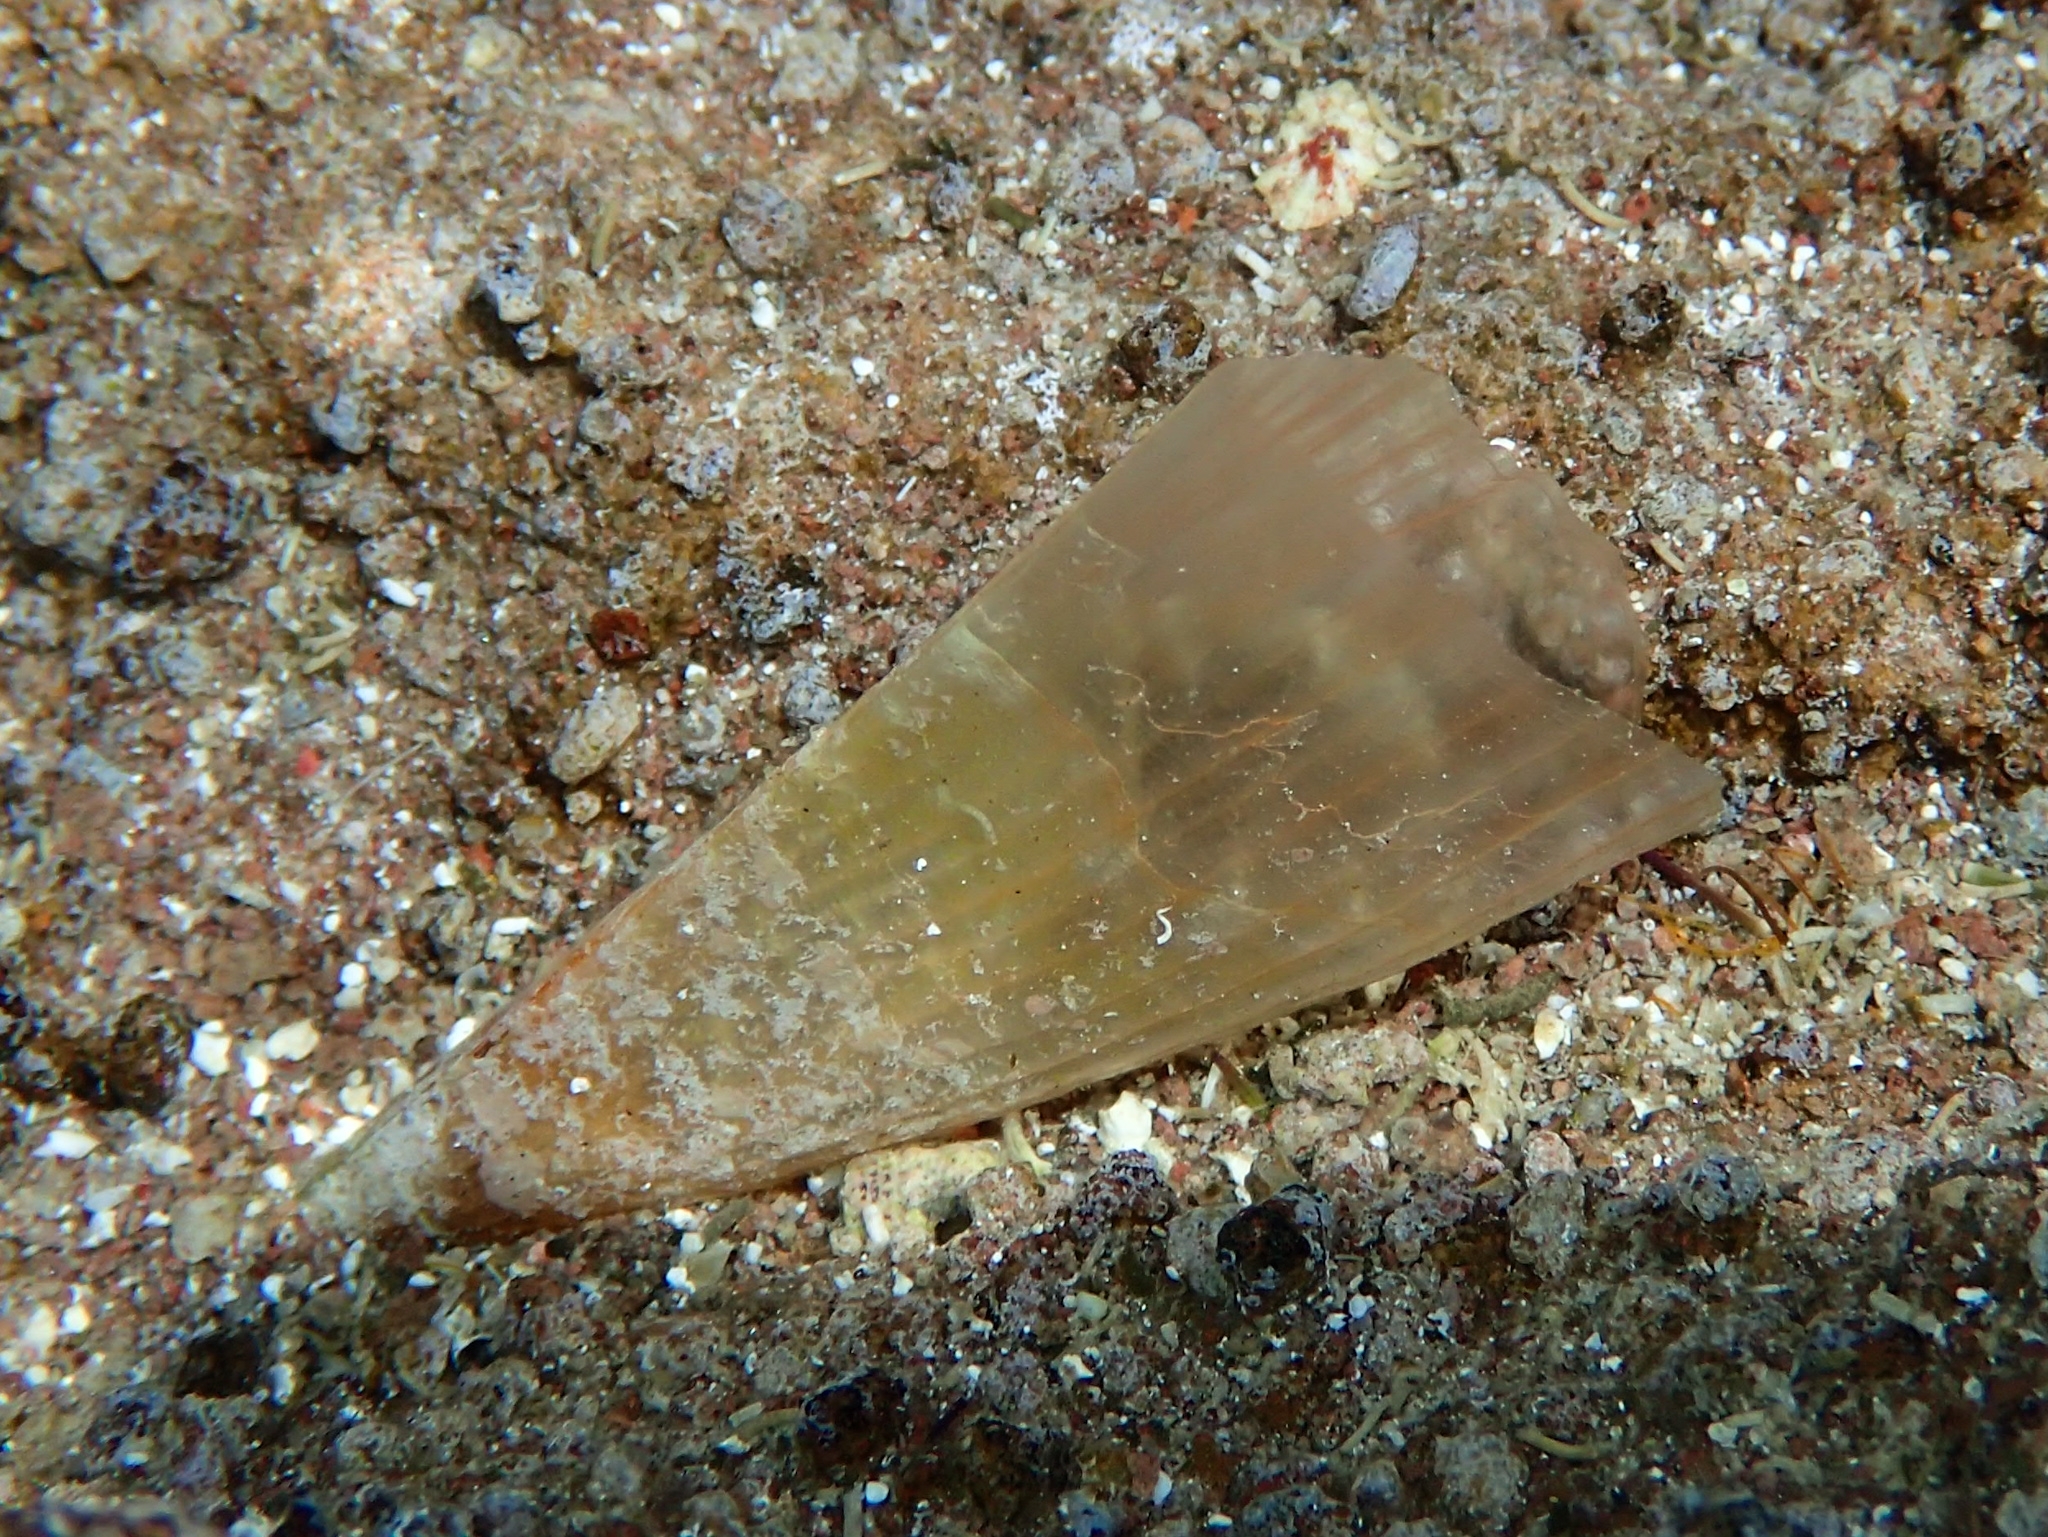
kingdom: Animalia
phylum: Mollusca
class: Bivalvia
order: Ostreida
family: Pinnidae
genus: Pinna
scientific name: Pinna carnea
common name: Amber penshell
